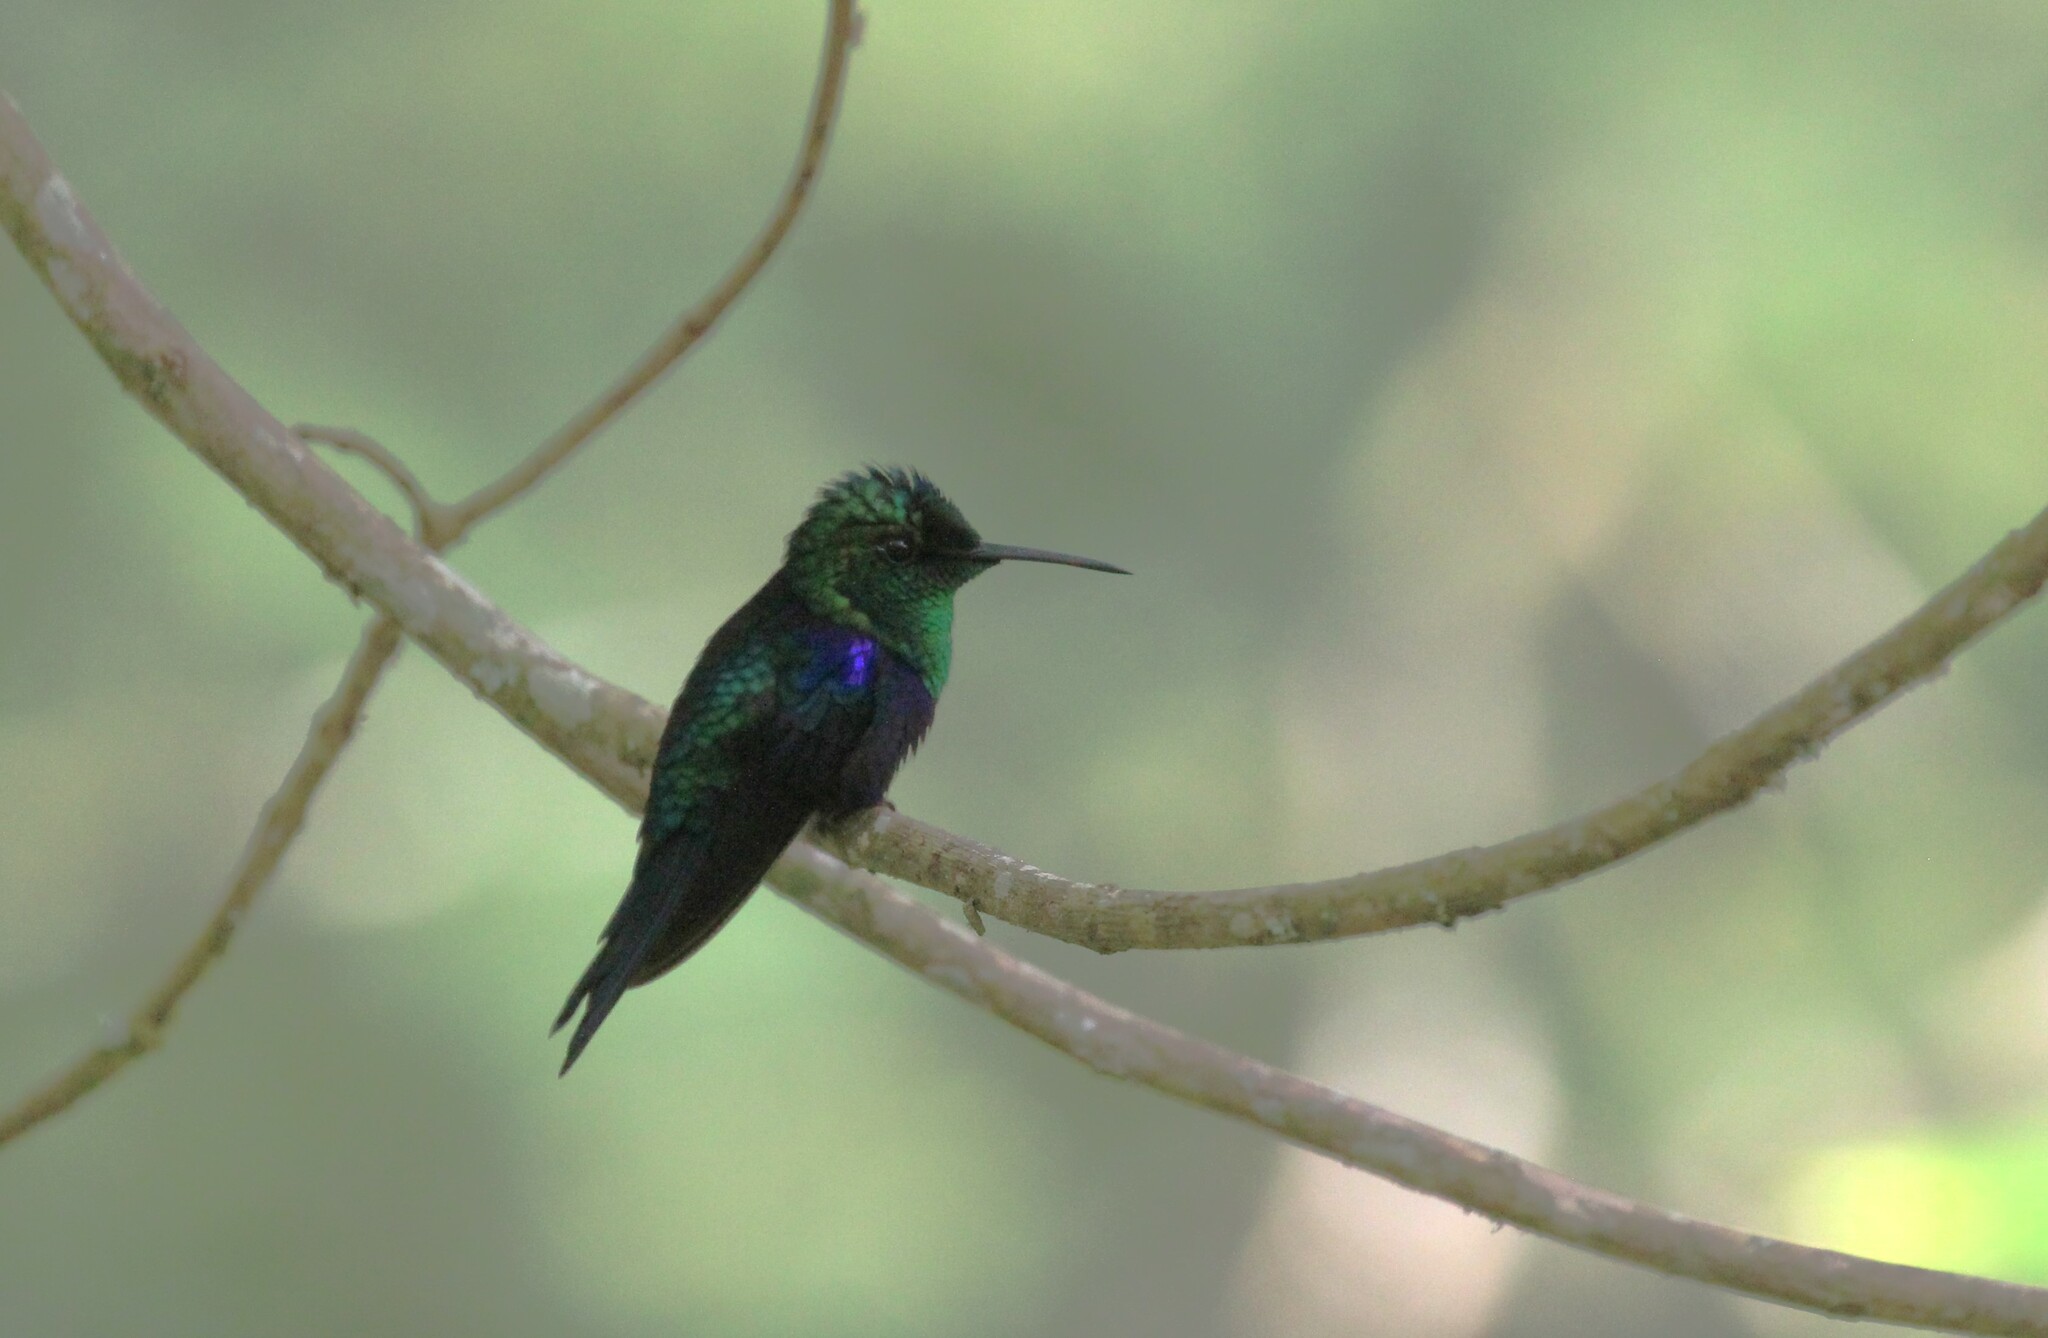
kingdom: Animalia
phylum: Chordata
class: Aves
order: Apodiformes
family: Trochilidae
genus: Thalurania
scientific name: Thalurania colombica
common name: Crowned woodnymph
